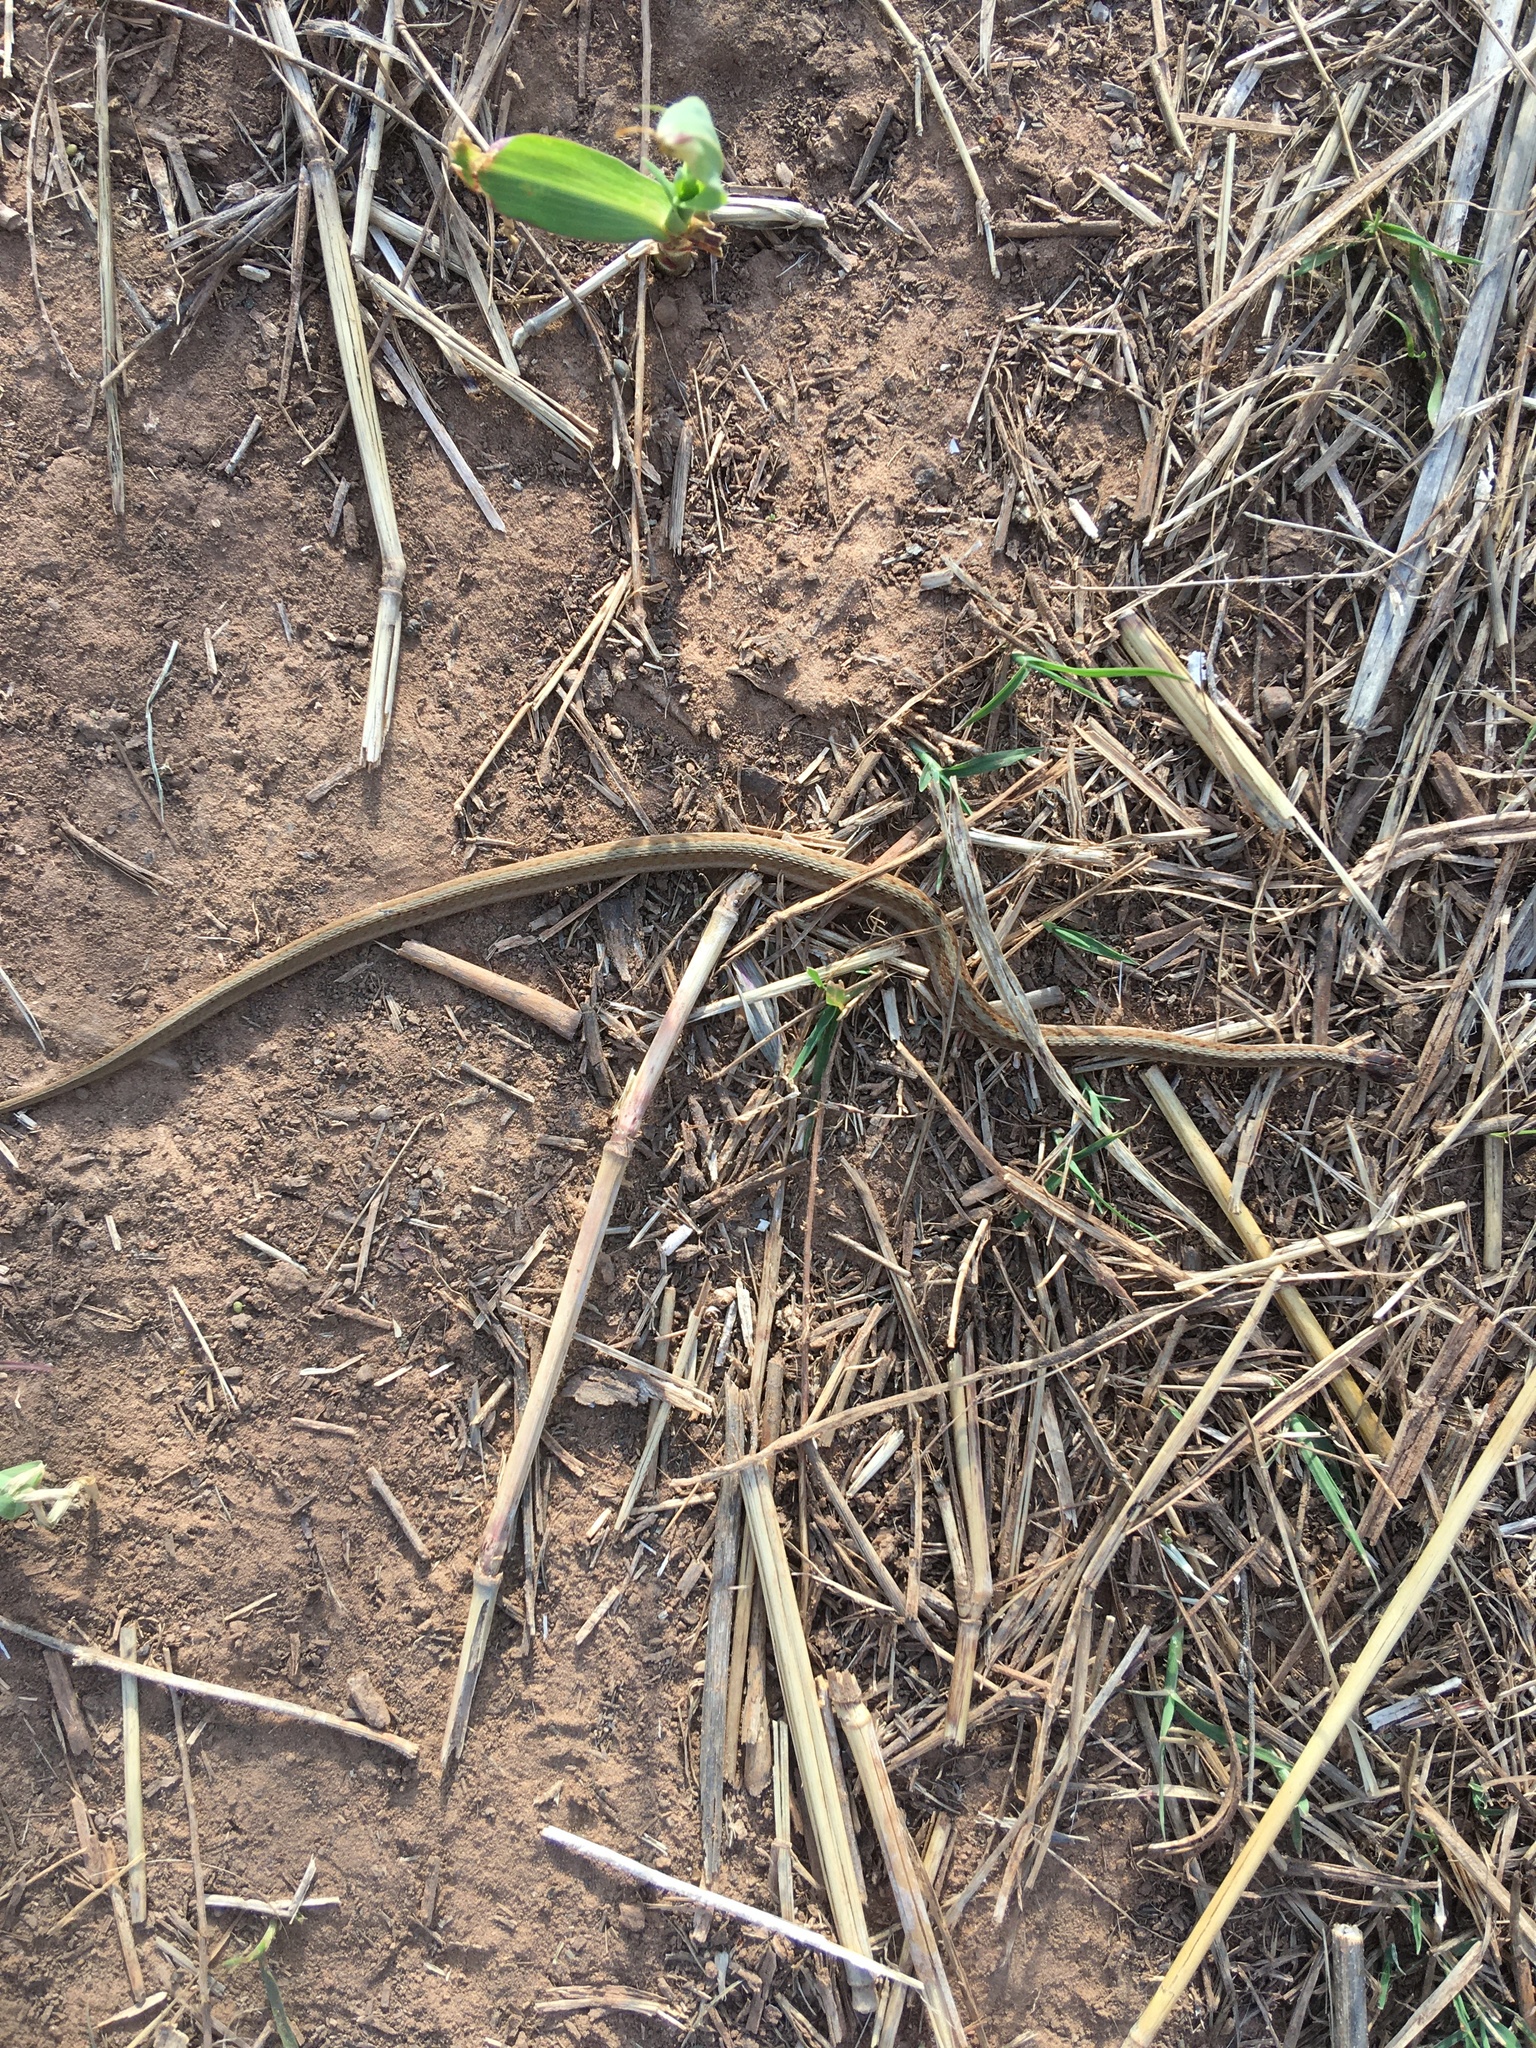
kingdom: Animalia
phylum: Chordata
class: Squamata
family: Colubridae
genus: Storeria
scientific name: Storeria dekayi
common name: (dekay’s) brown snake
